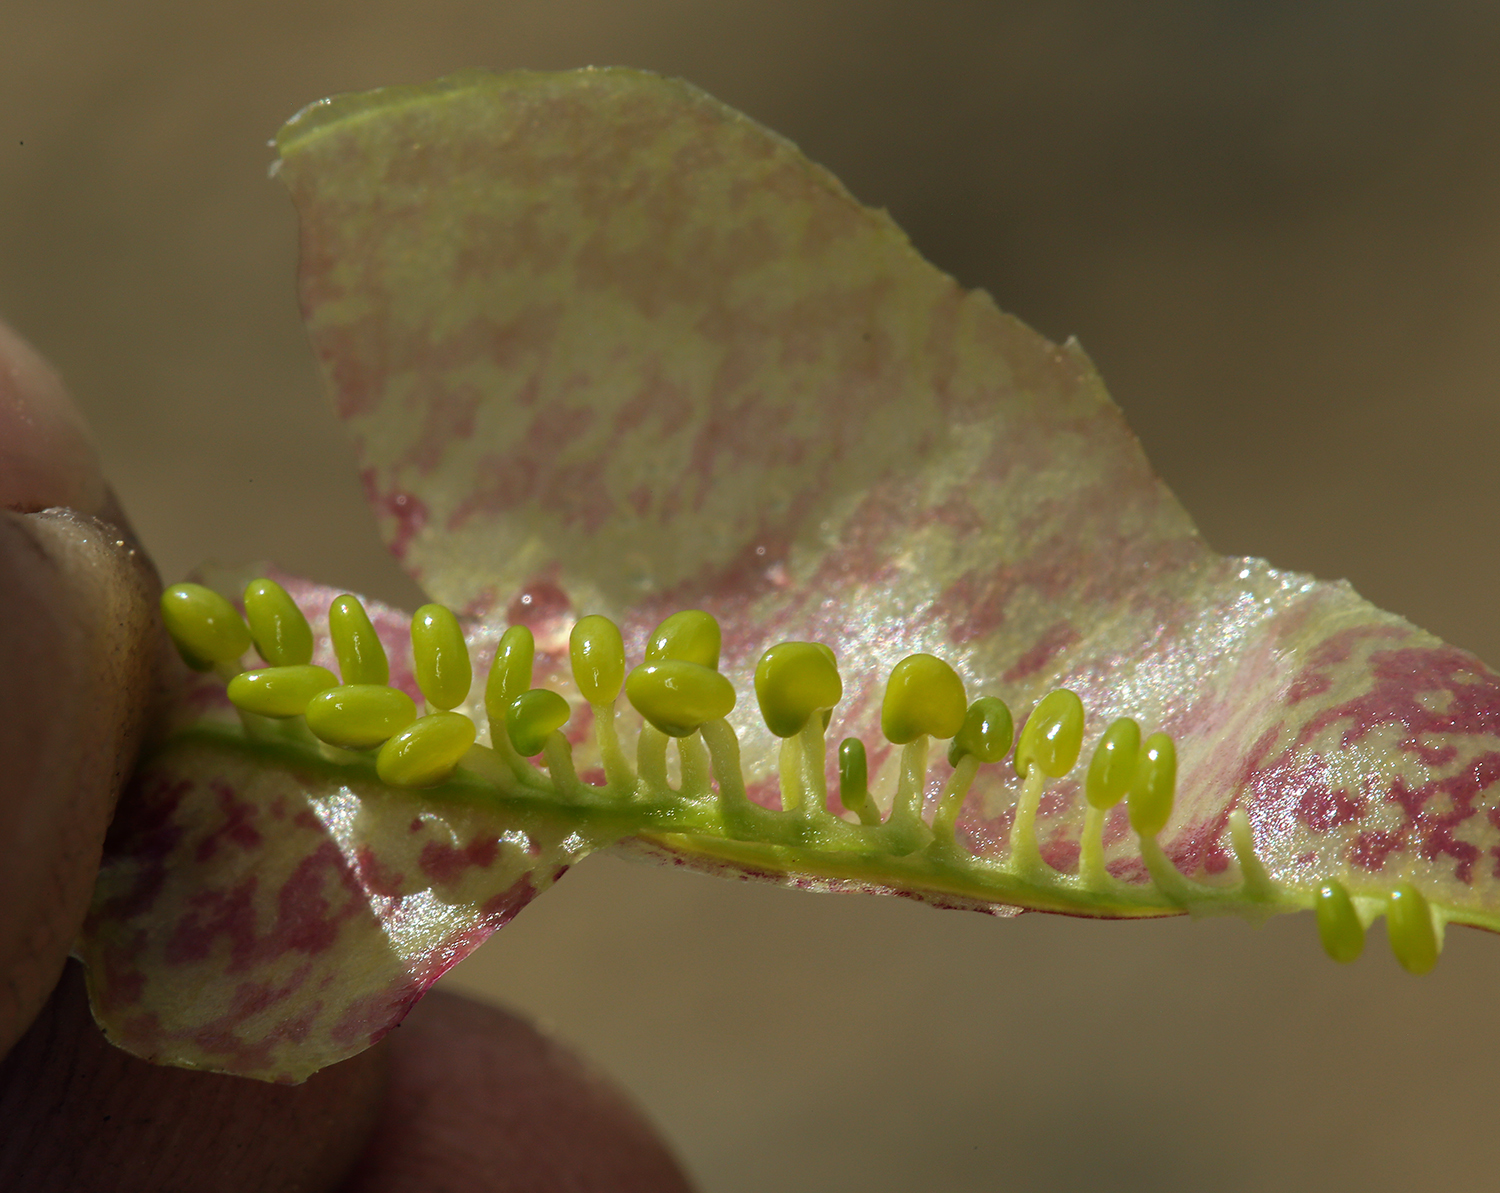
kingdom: Plantae
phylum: Tracheophyta
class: Magnoliopsida
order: Fabales
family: Fabaceae
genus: Astragalus
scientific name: Astragalus whitneyi
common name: Balloonpod milkvetch
